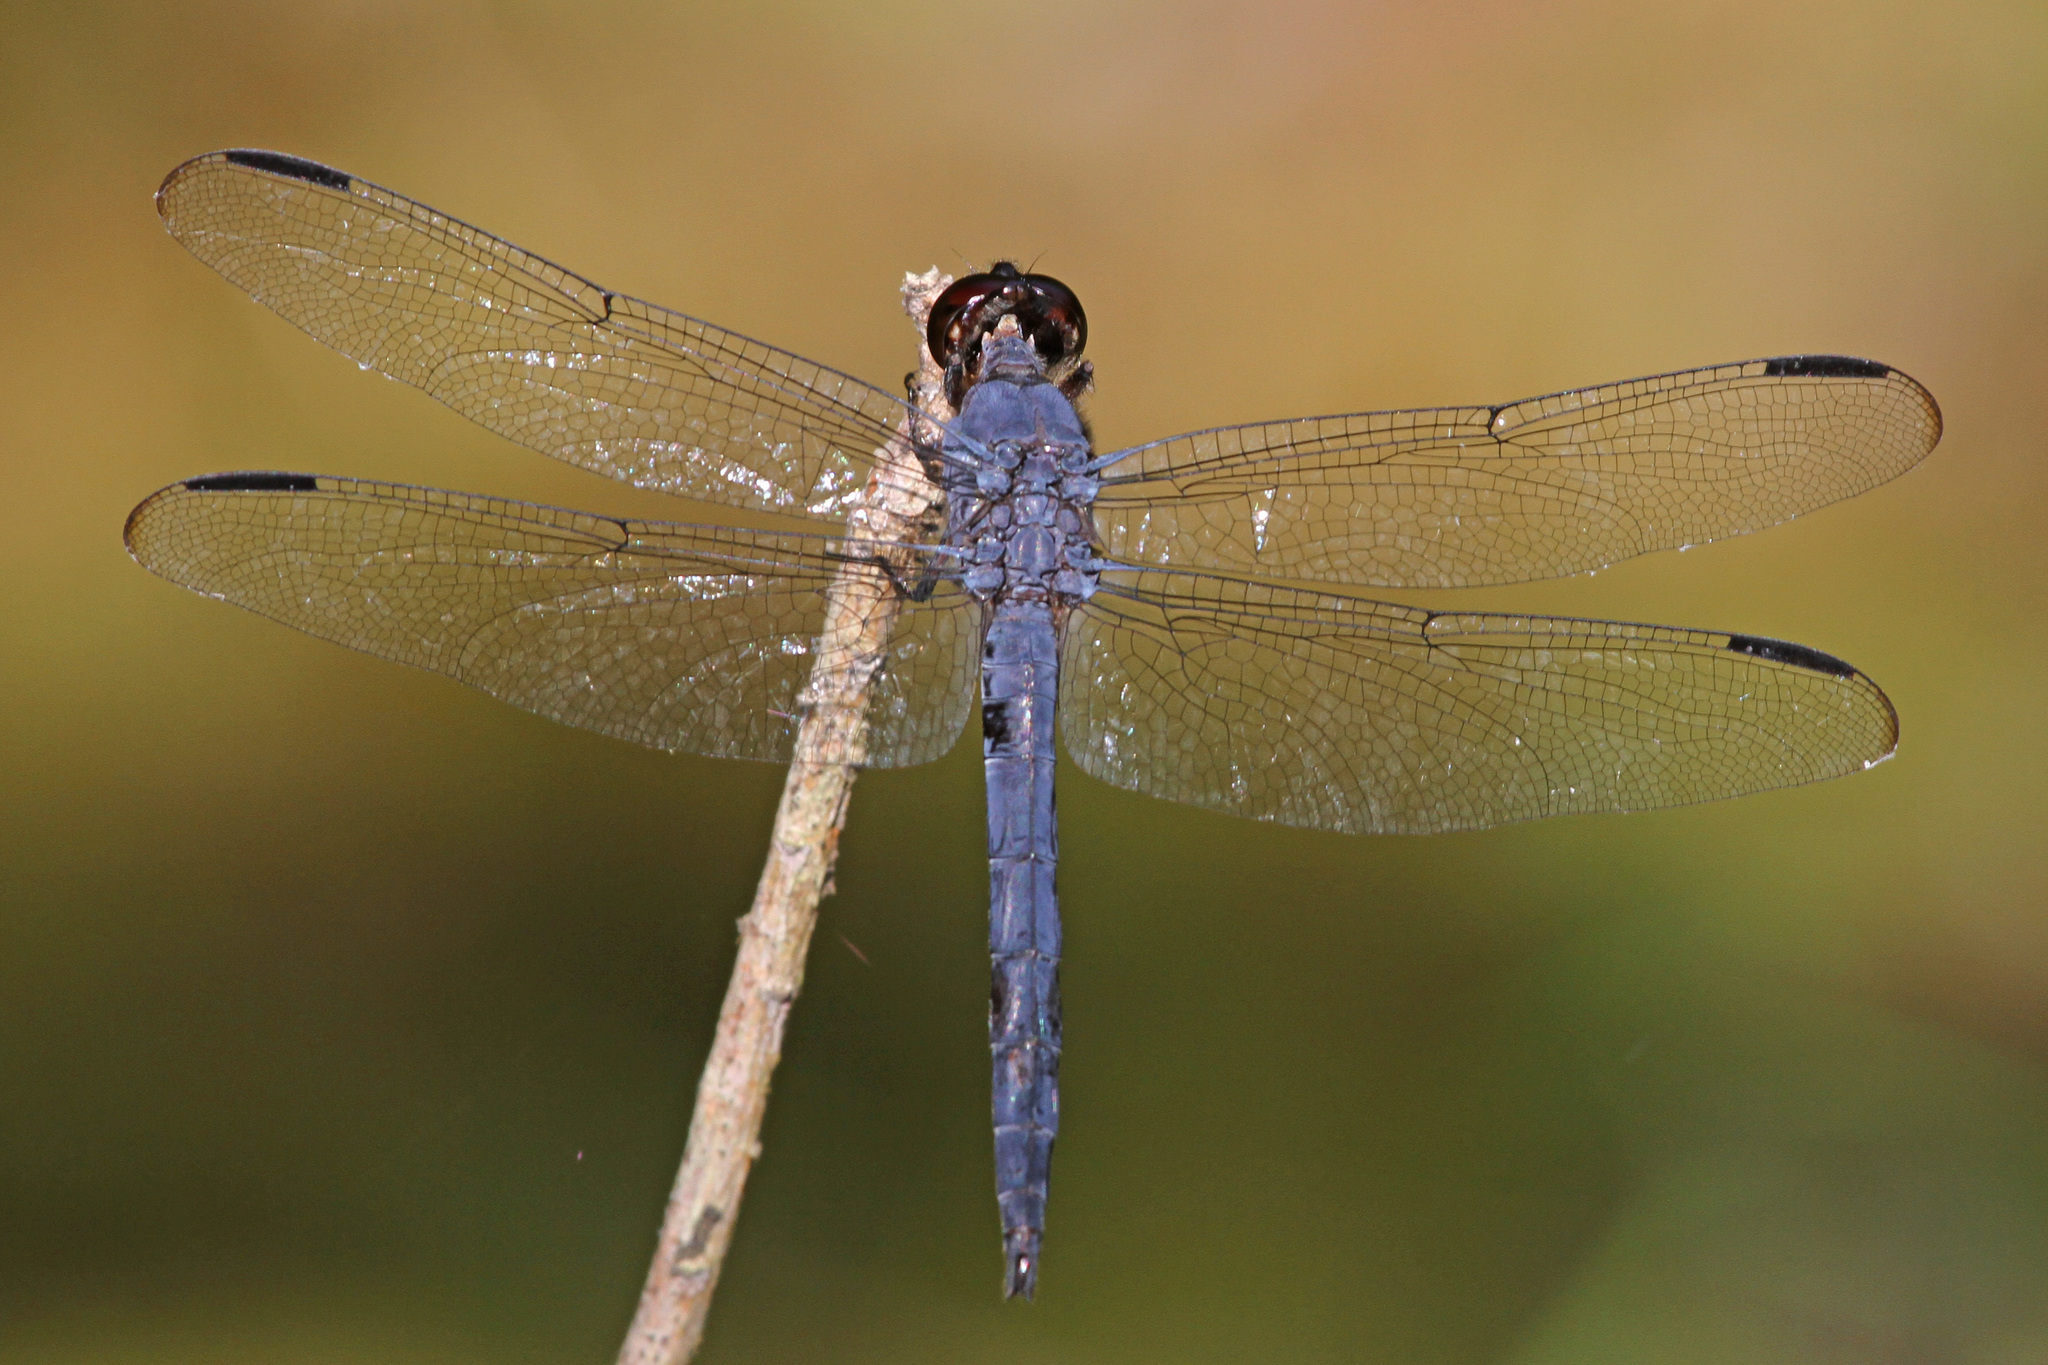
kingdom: Animalia
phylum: Arthropoda
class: Insecta
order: Odonata
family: Libellulidae
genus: Libellula
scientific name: Libellula incesta
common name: Slaty skimmer
